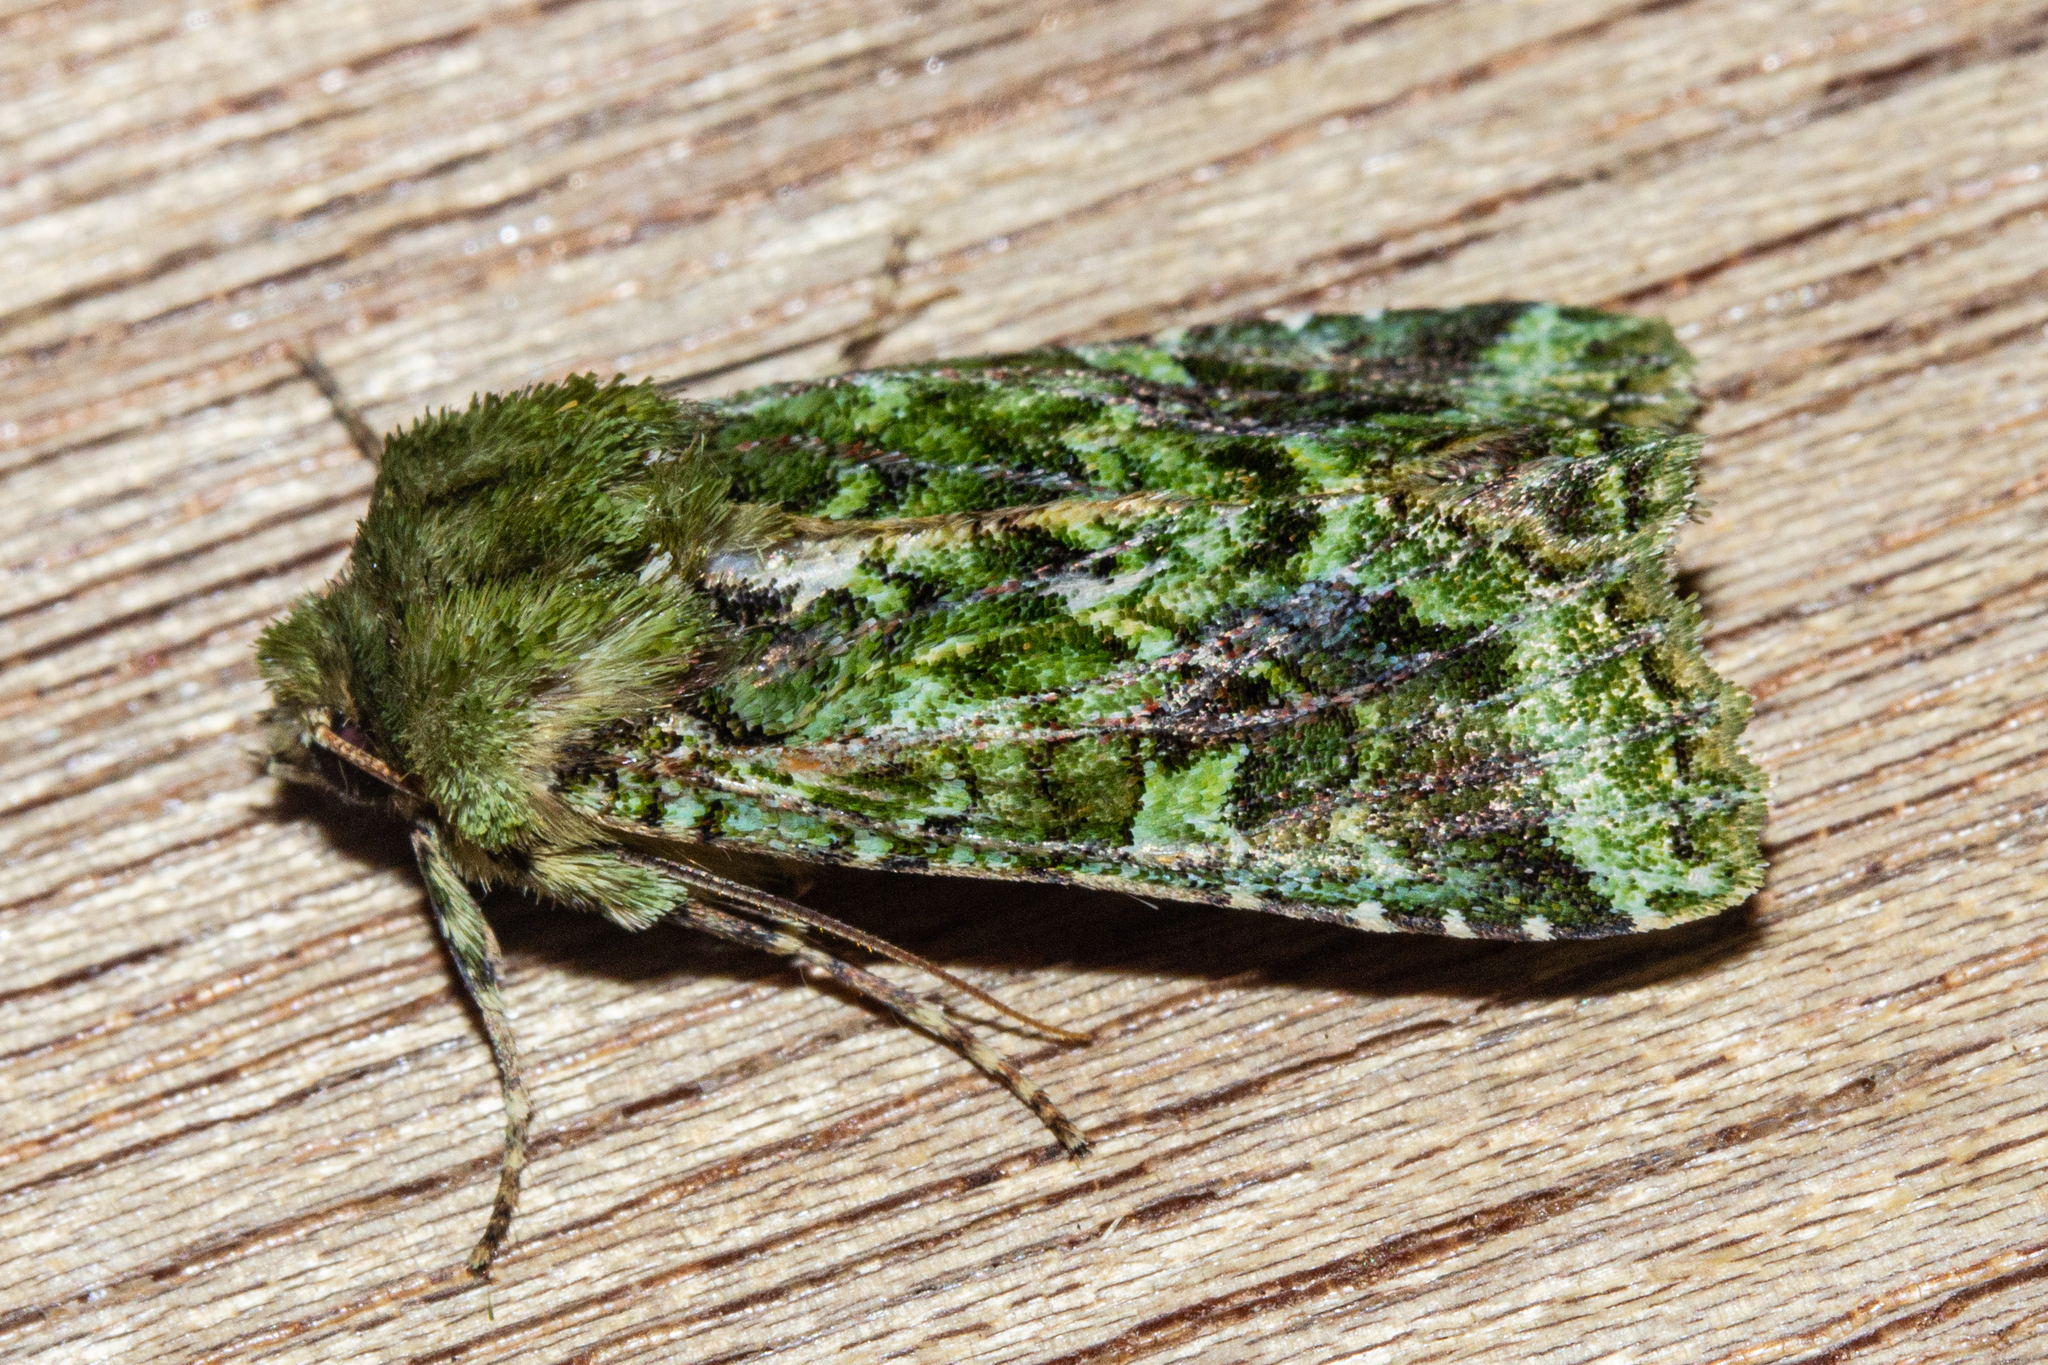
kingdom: Animalia
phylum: Arthropoda
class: Insecta
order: Lepidoptera
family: Noctuidae
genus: Feredayia
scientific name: Feredayia grammosa
